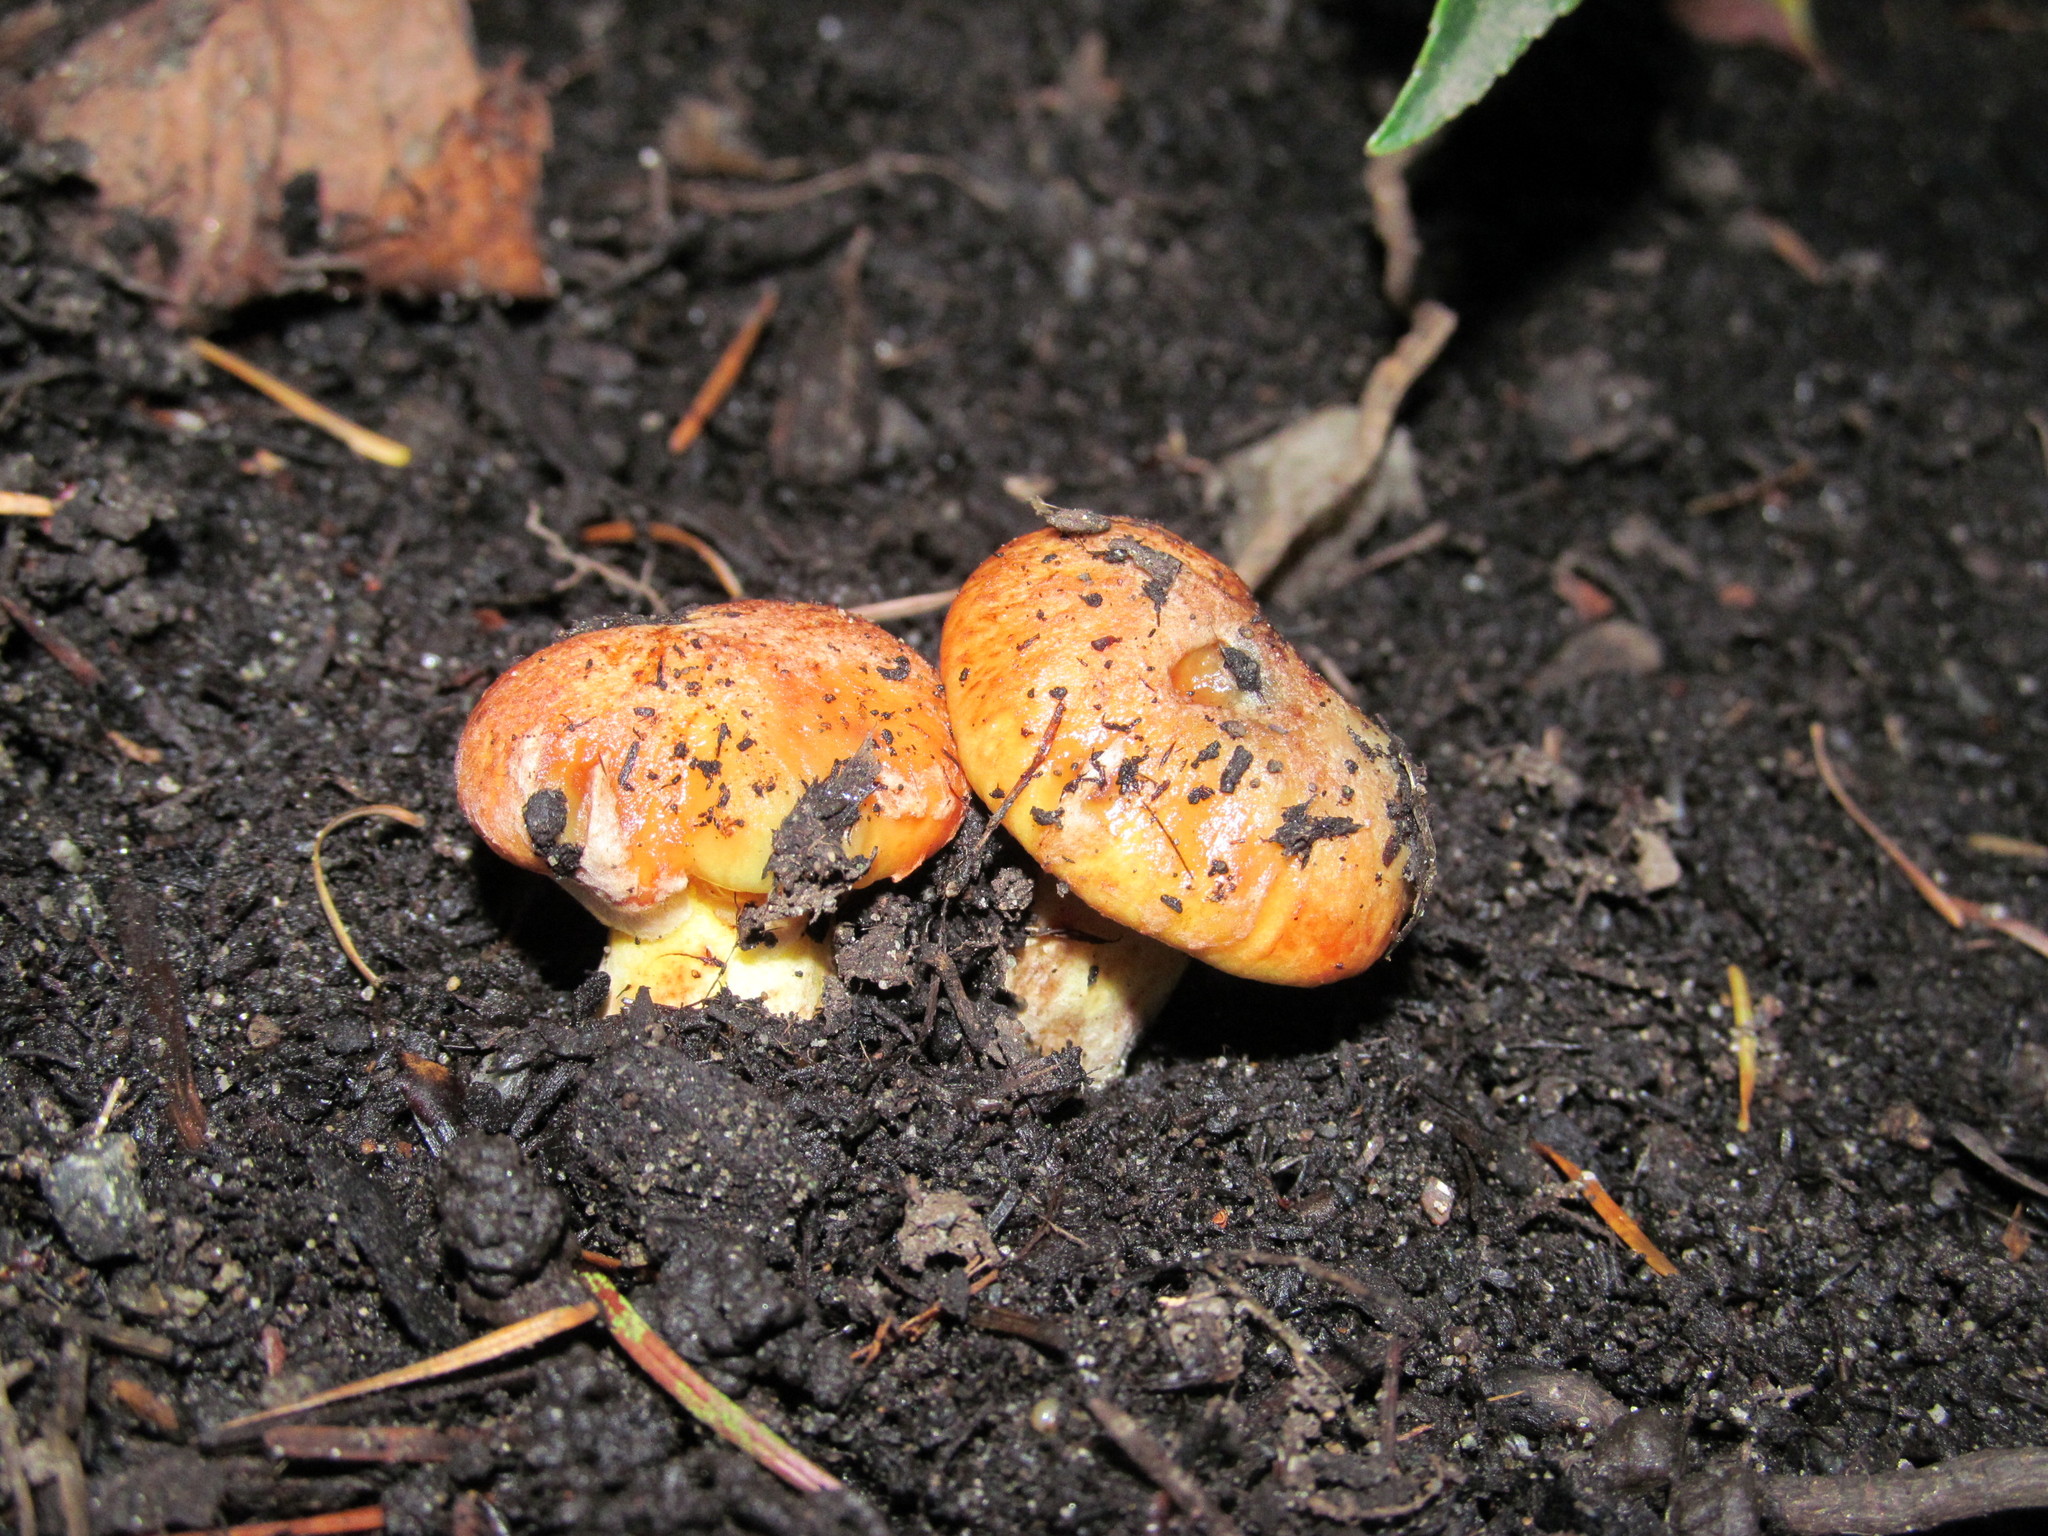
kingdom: Fungi
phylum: Basidiomycota
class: Agaricomycetes
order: Boletales
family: Suillaceae
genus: Suillus
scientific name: Suillus caerulescens
